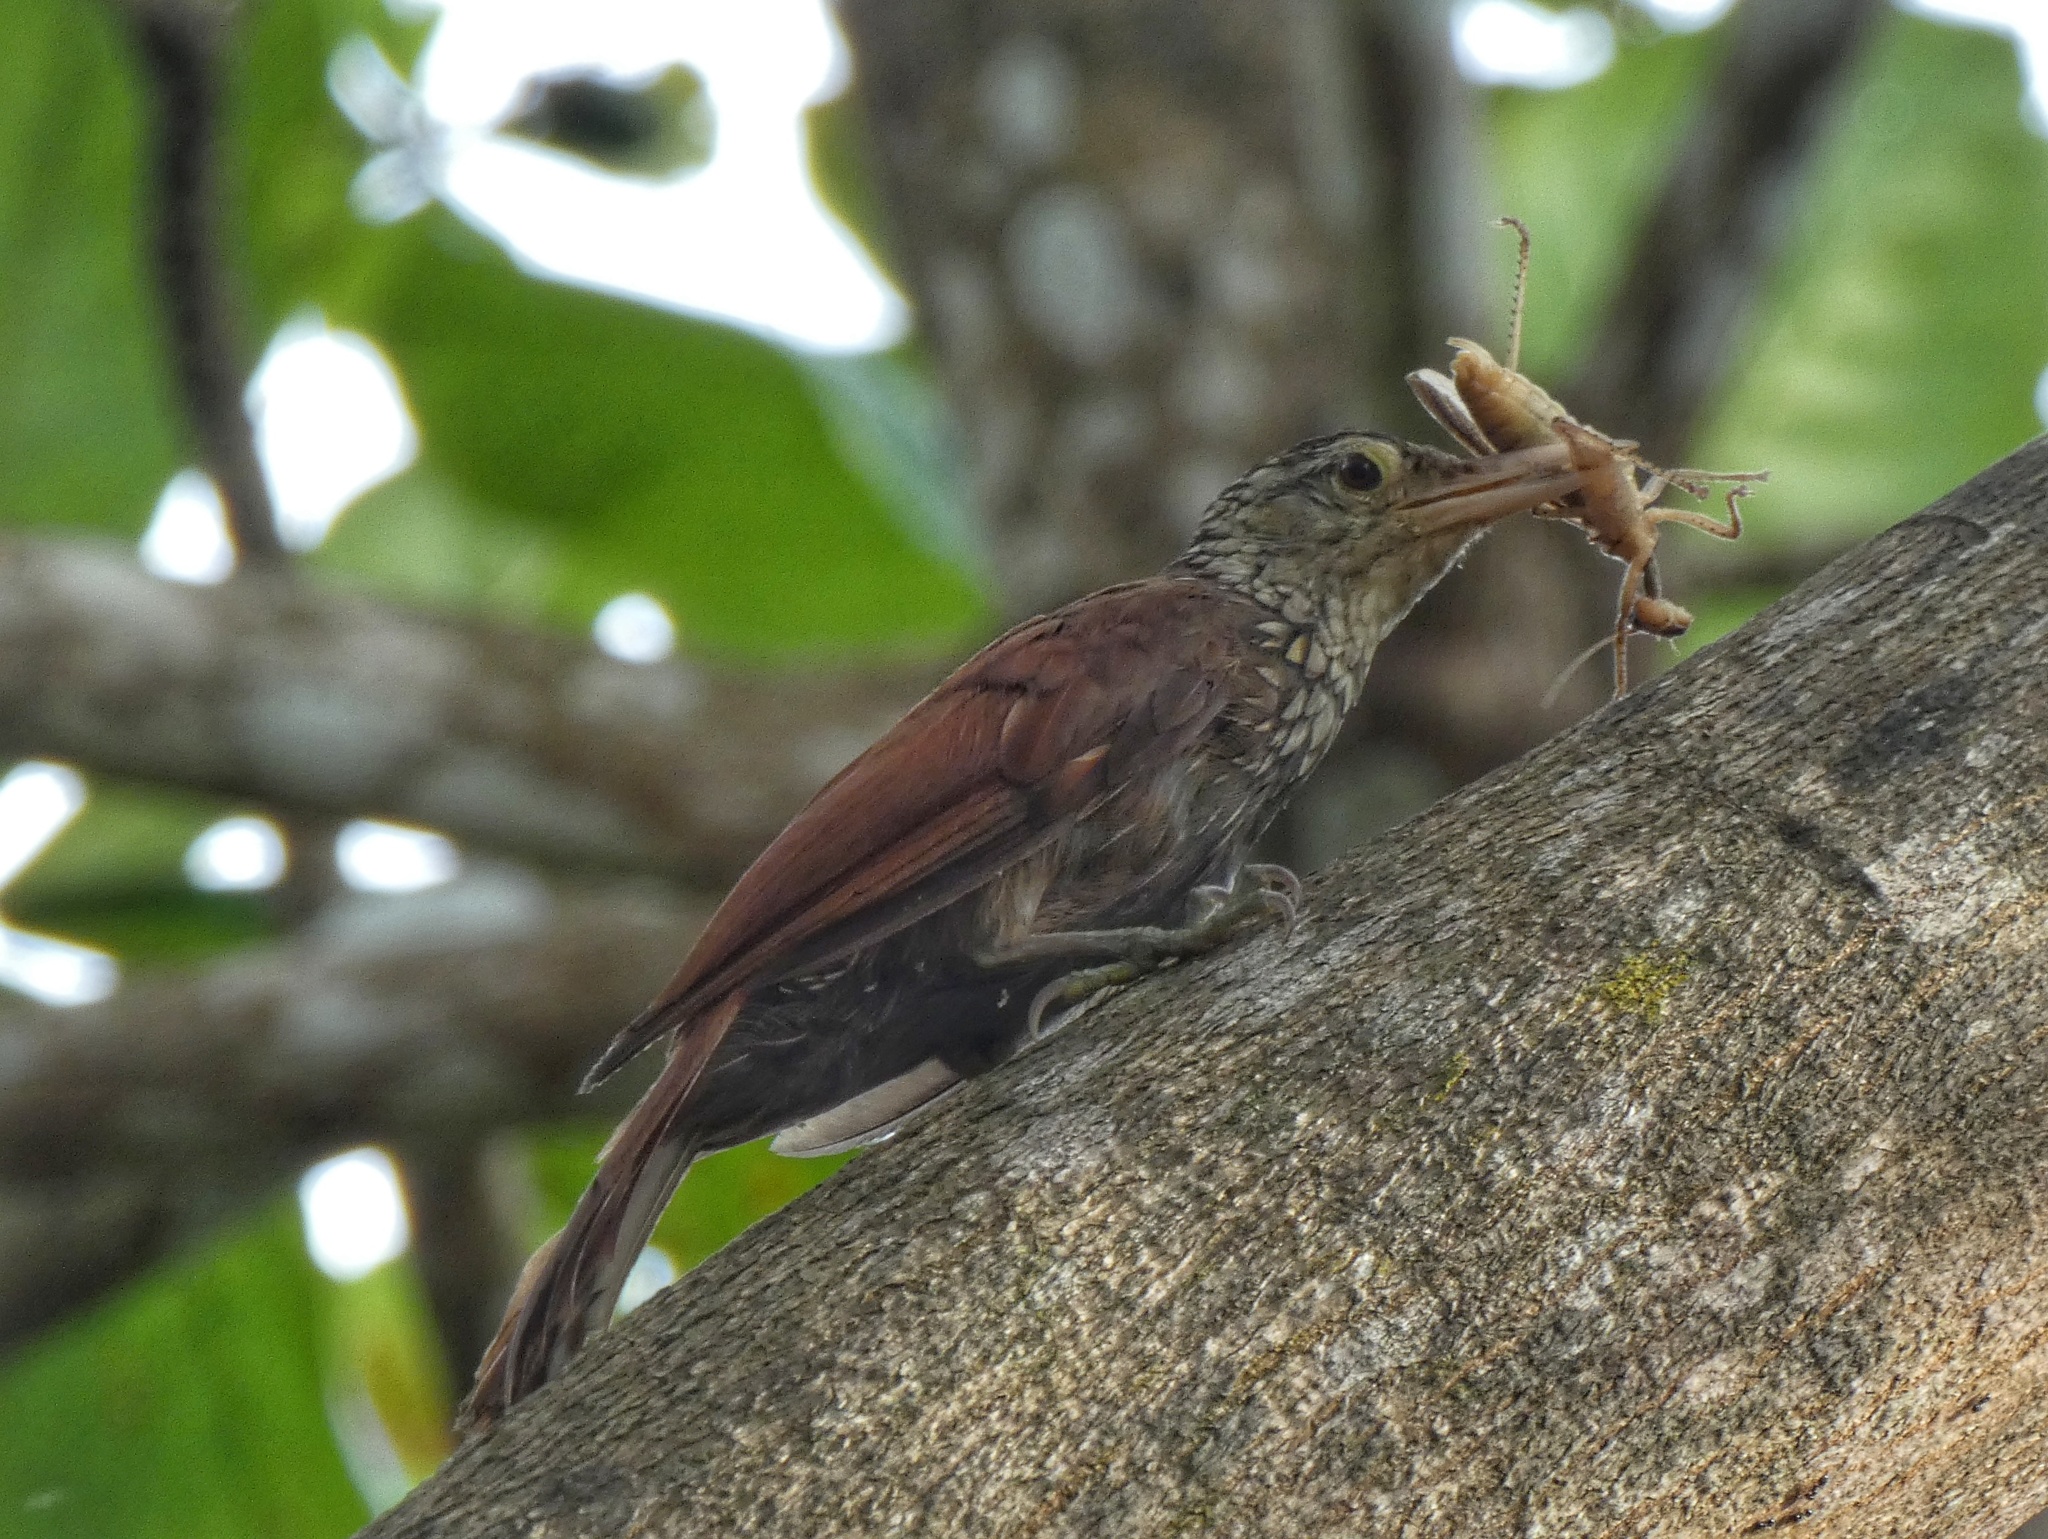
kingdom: Animalia
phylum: Chordata
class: Aves
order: Passeriformes
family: Furnariidae
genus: Xiphorhynchus
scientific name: Xiphorhynchus picus
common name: Straight-billed woodcreeper
